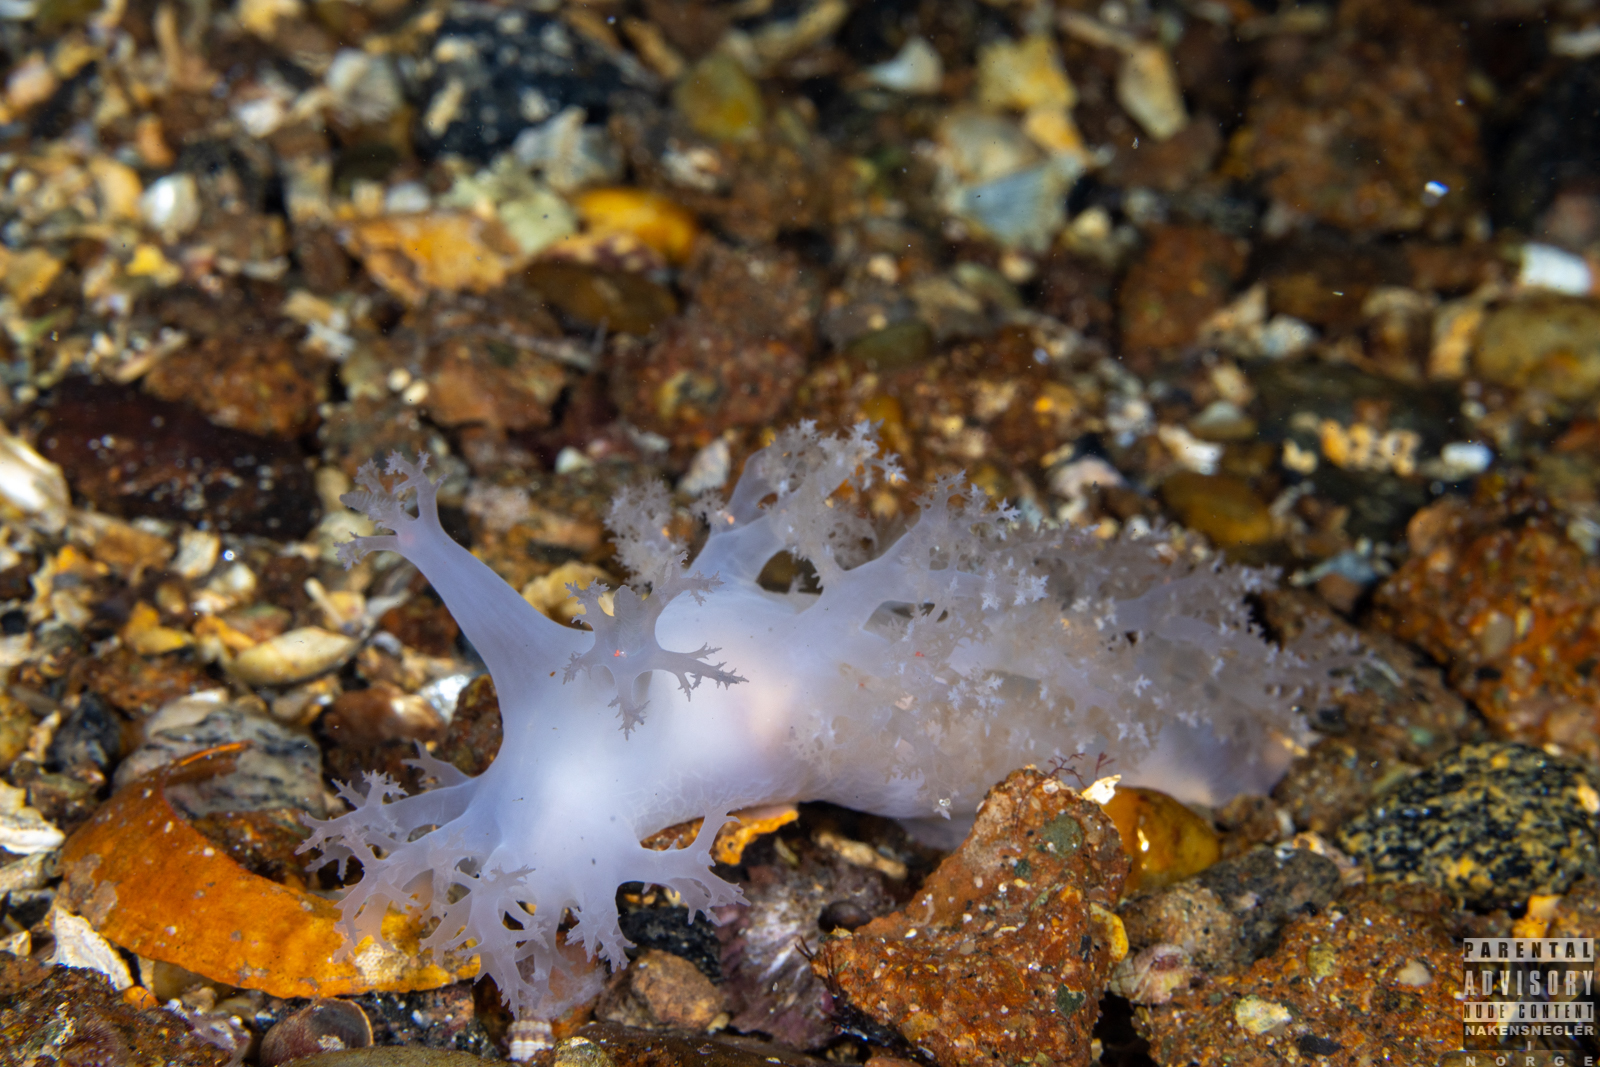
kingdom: Animalia
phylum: Mollusca
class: Gastropoda
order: Nudibranchia
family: Dendronotidae
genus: Dendronotus
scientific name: Dendronotus lacteus
